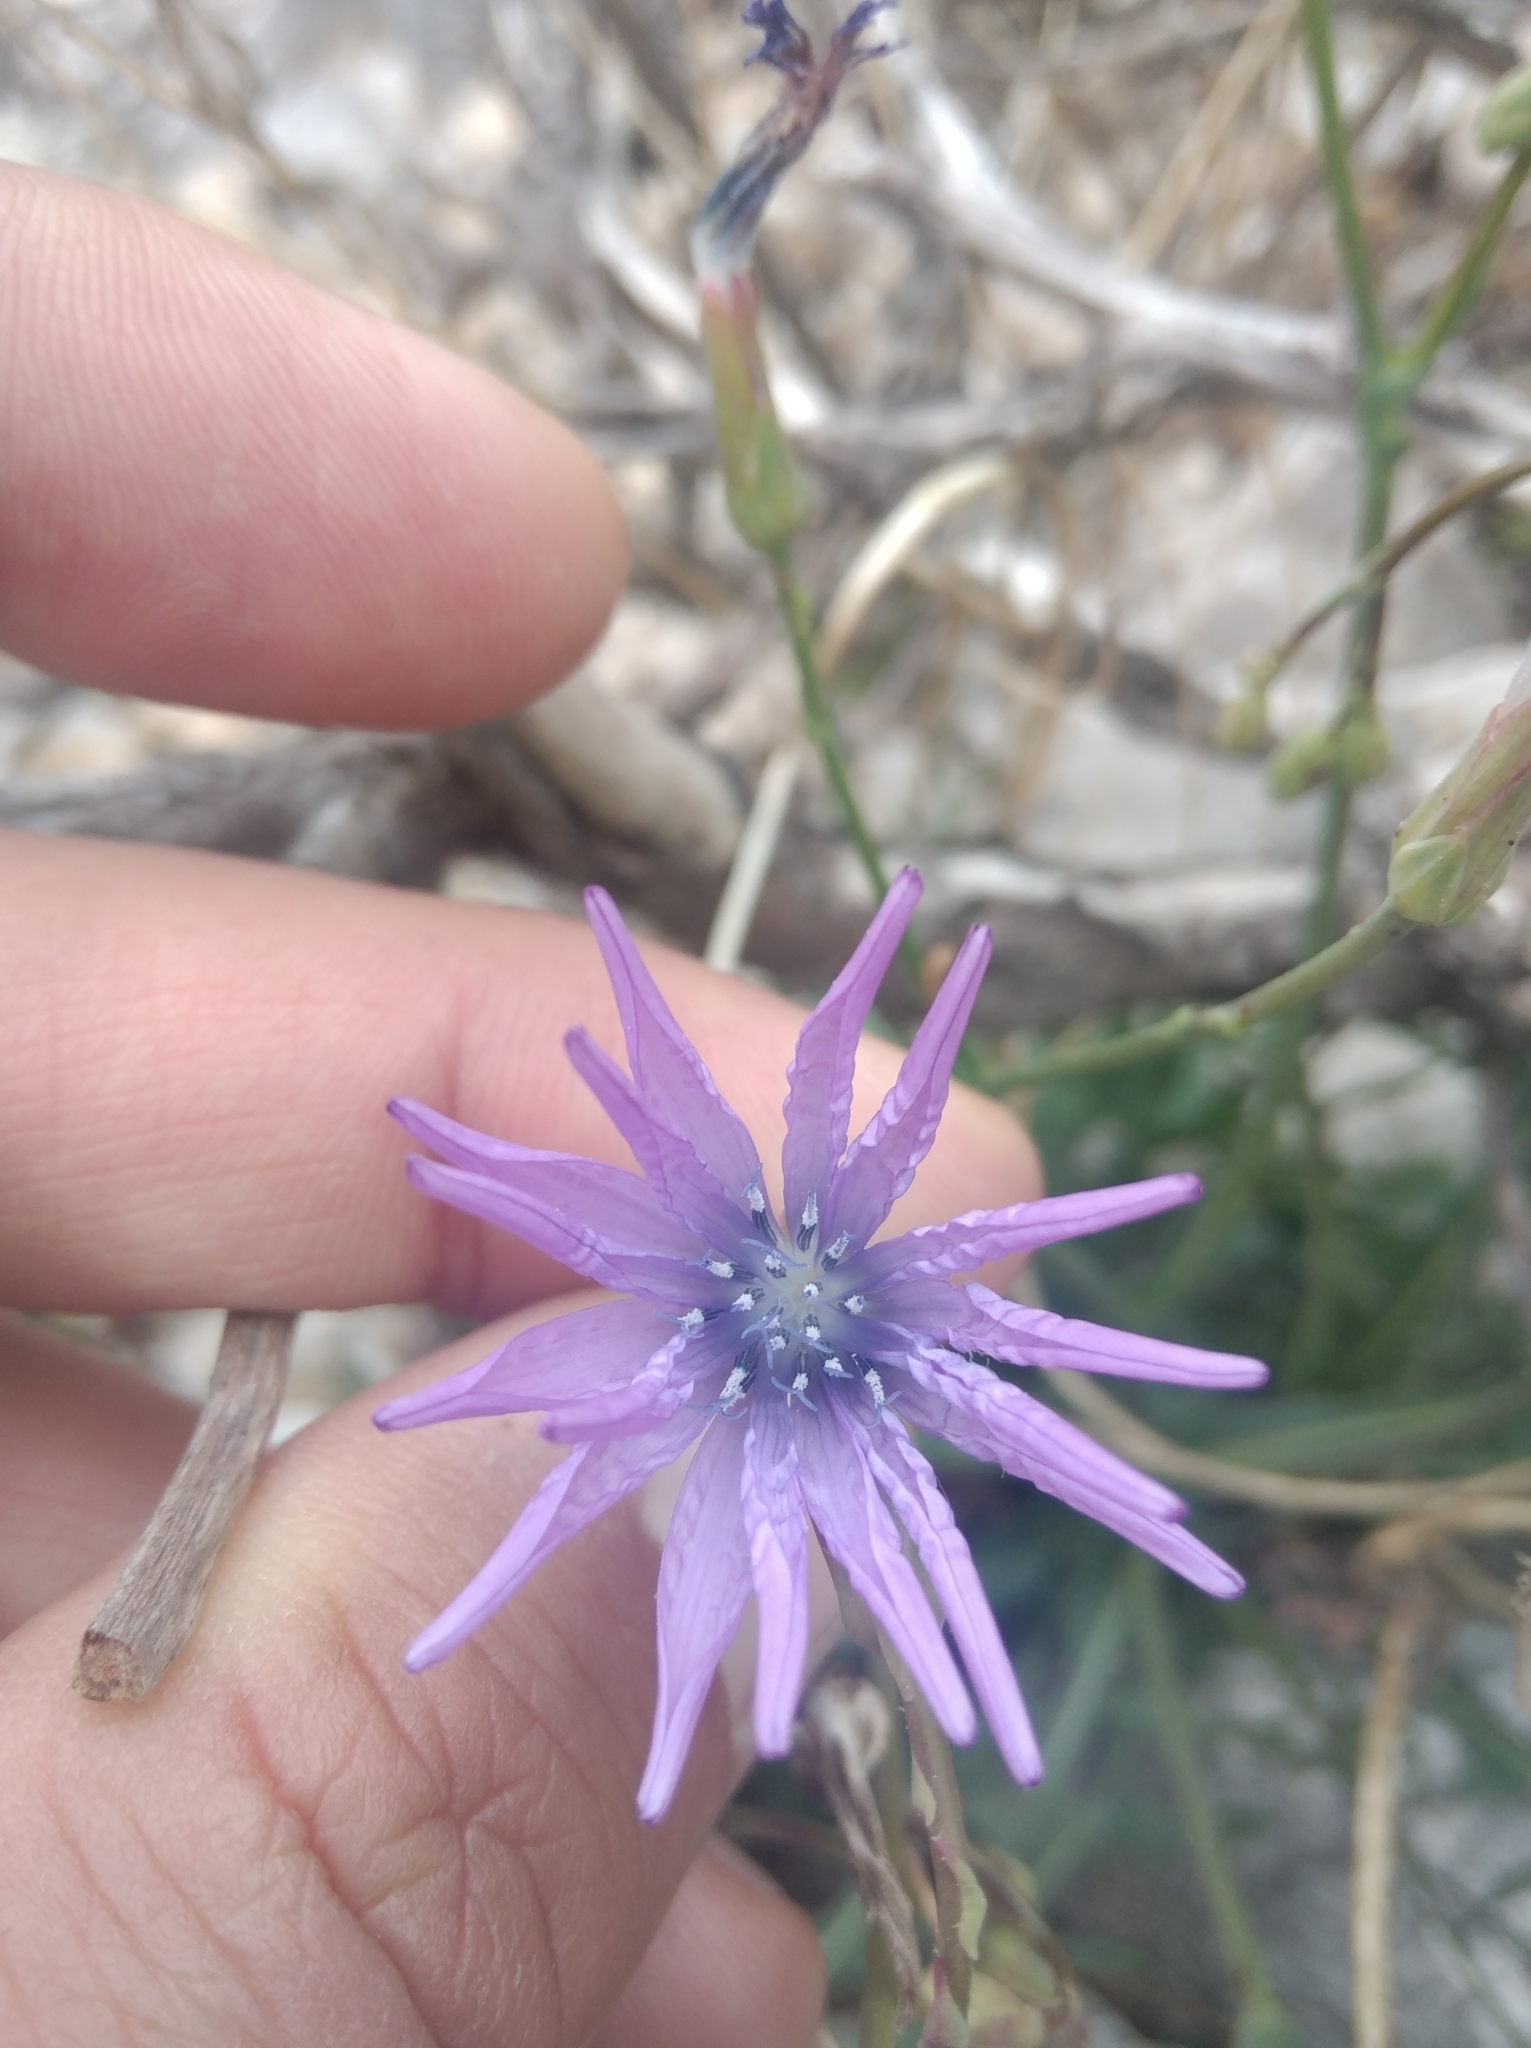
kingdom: Plantae
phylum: Tracheophyta
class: Magnoliopsida
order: Asterales
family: Asteraceae
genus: Lactuca
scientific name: Lactuca perennis
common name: Mountain lettuce
